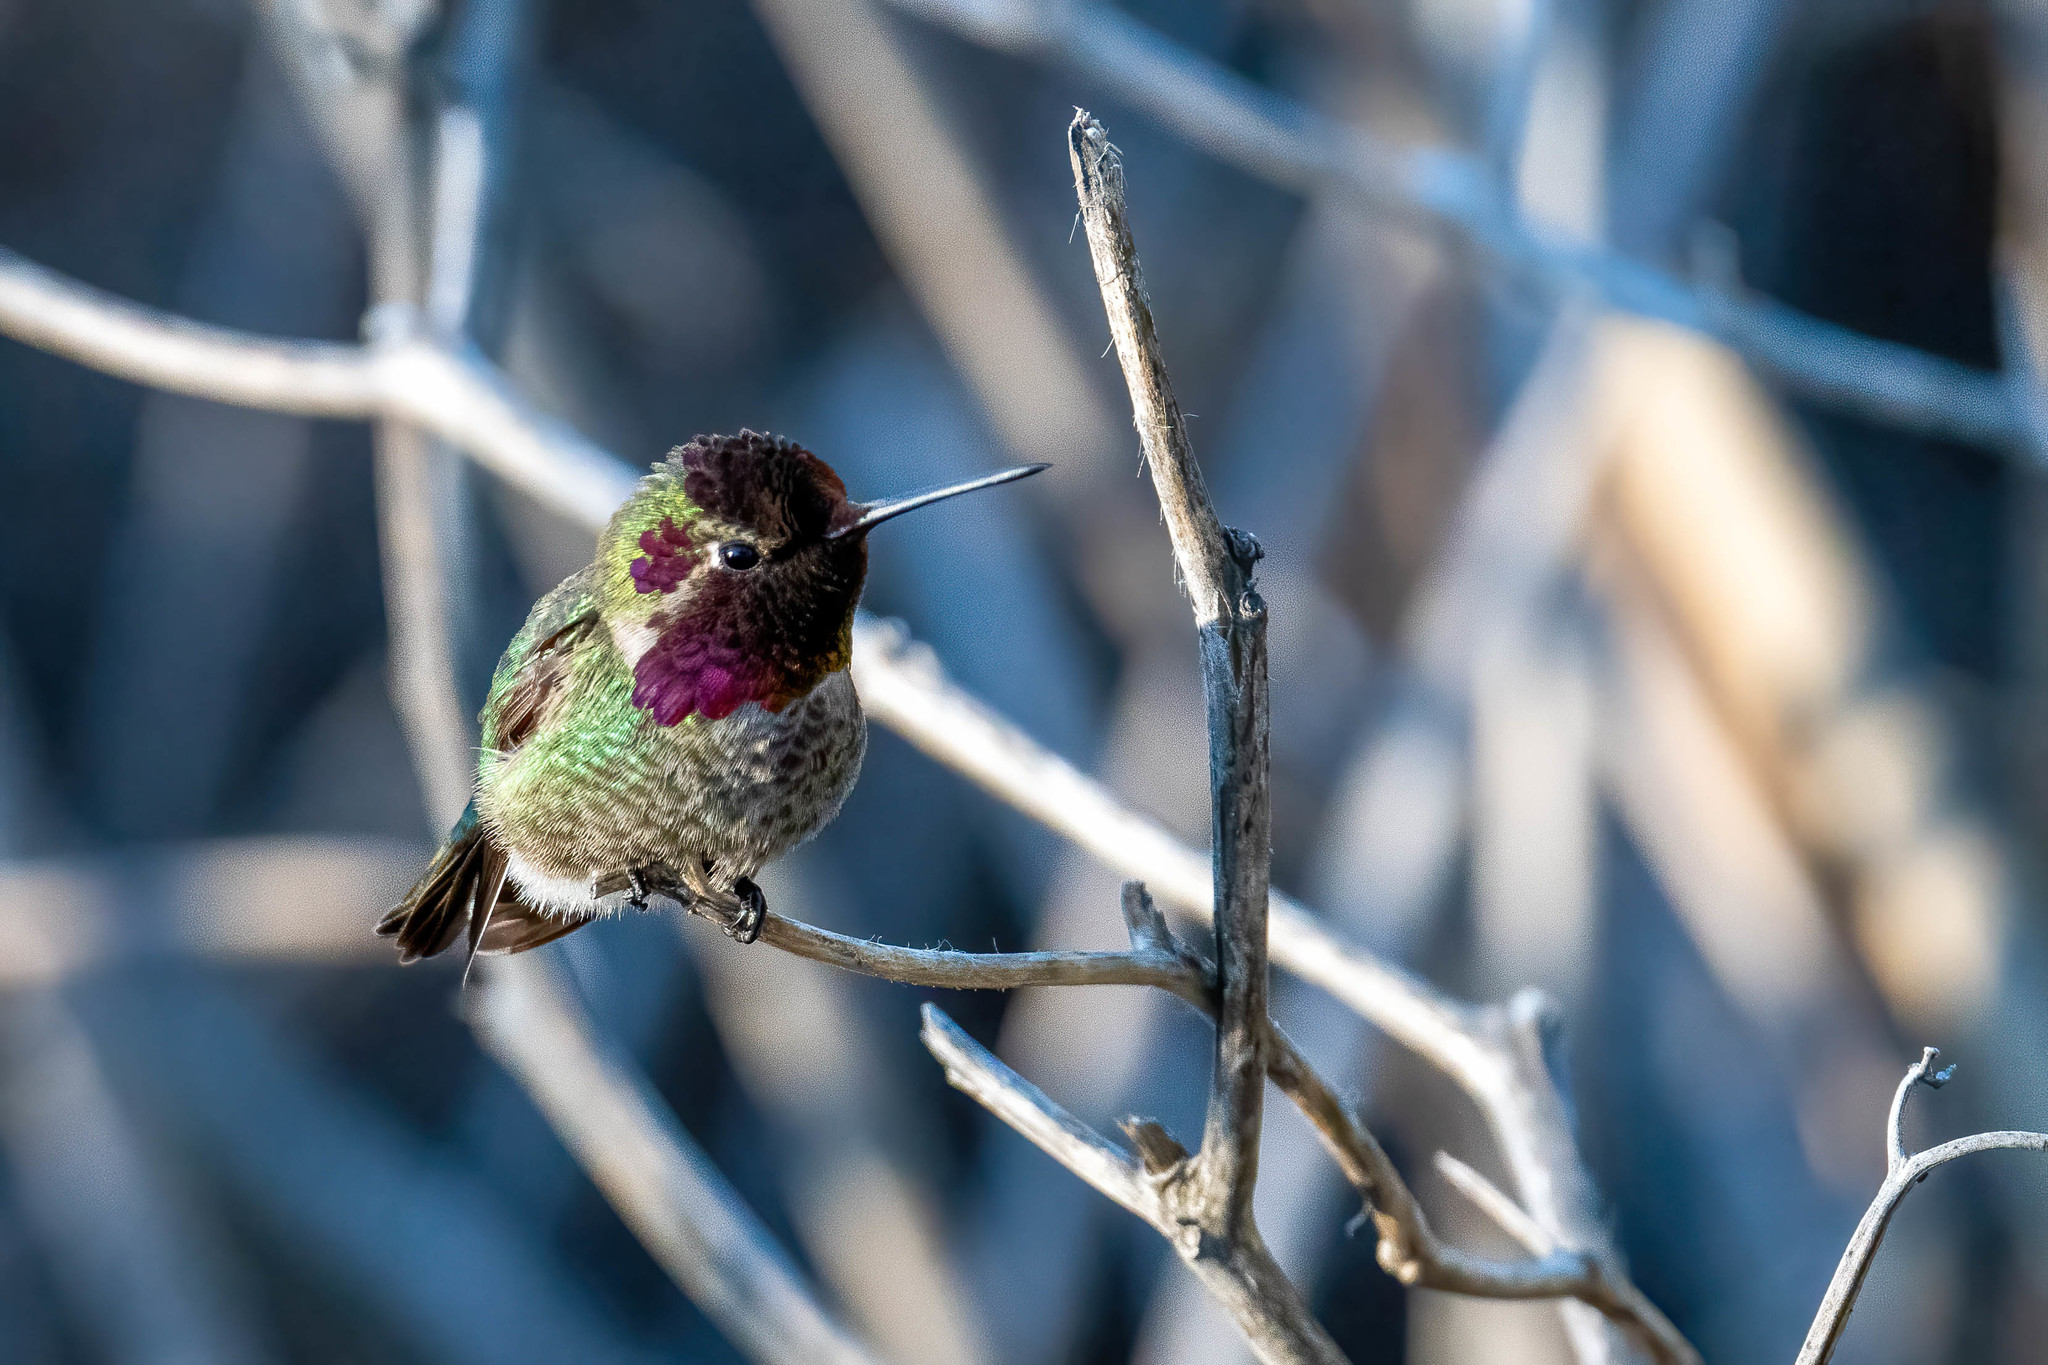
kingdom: Animalia
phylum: Chordata
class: Aves
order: Apodiformes
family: Trochilidae
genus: Calypte
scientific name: Calypte anna
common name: Anna's hummingbird
